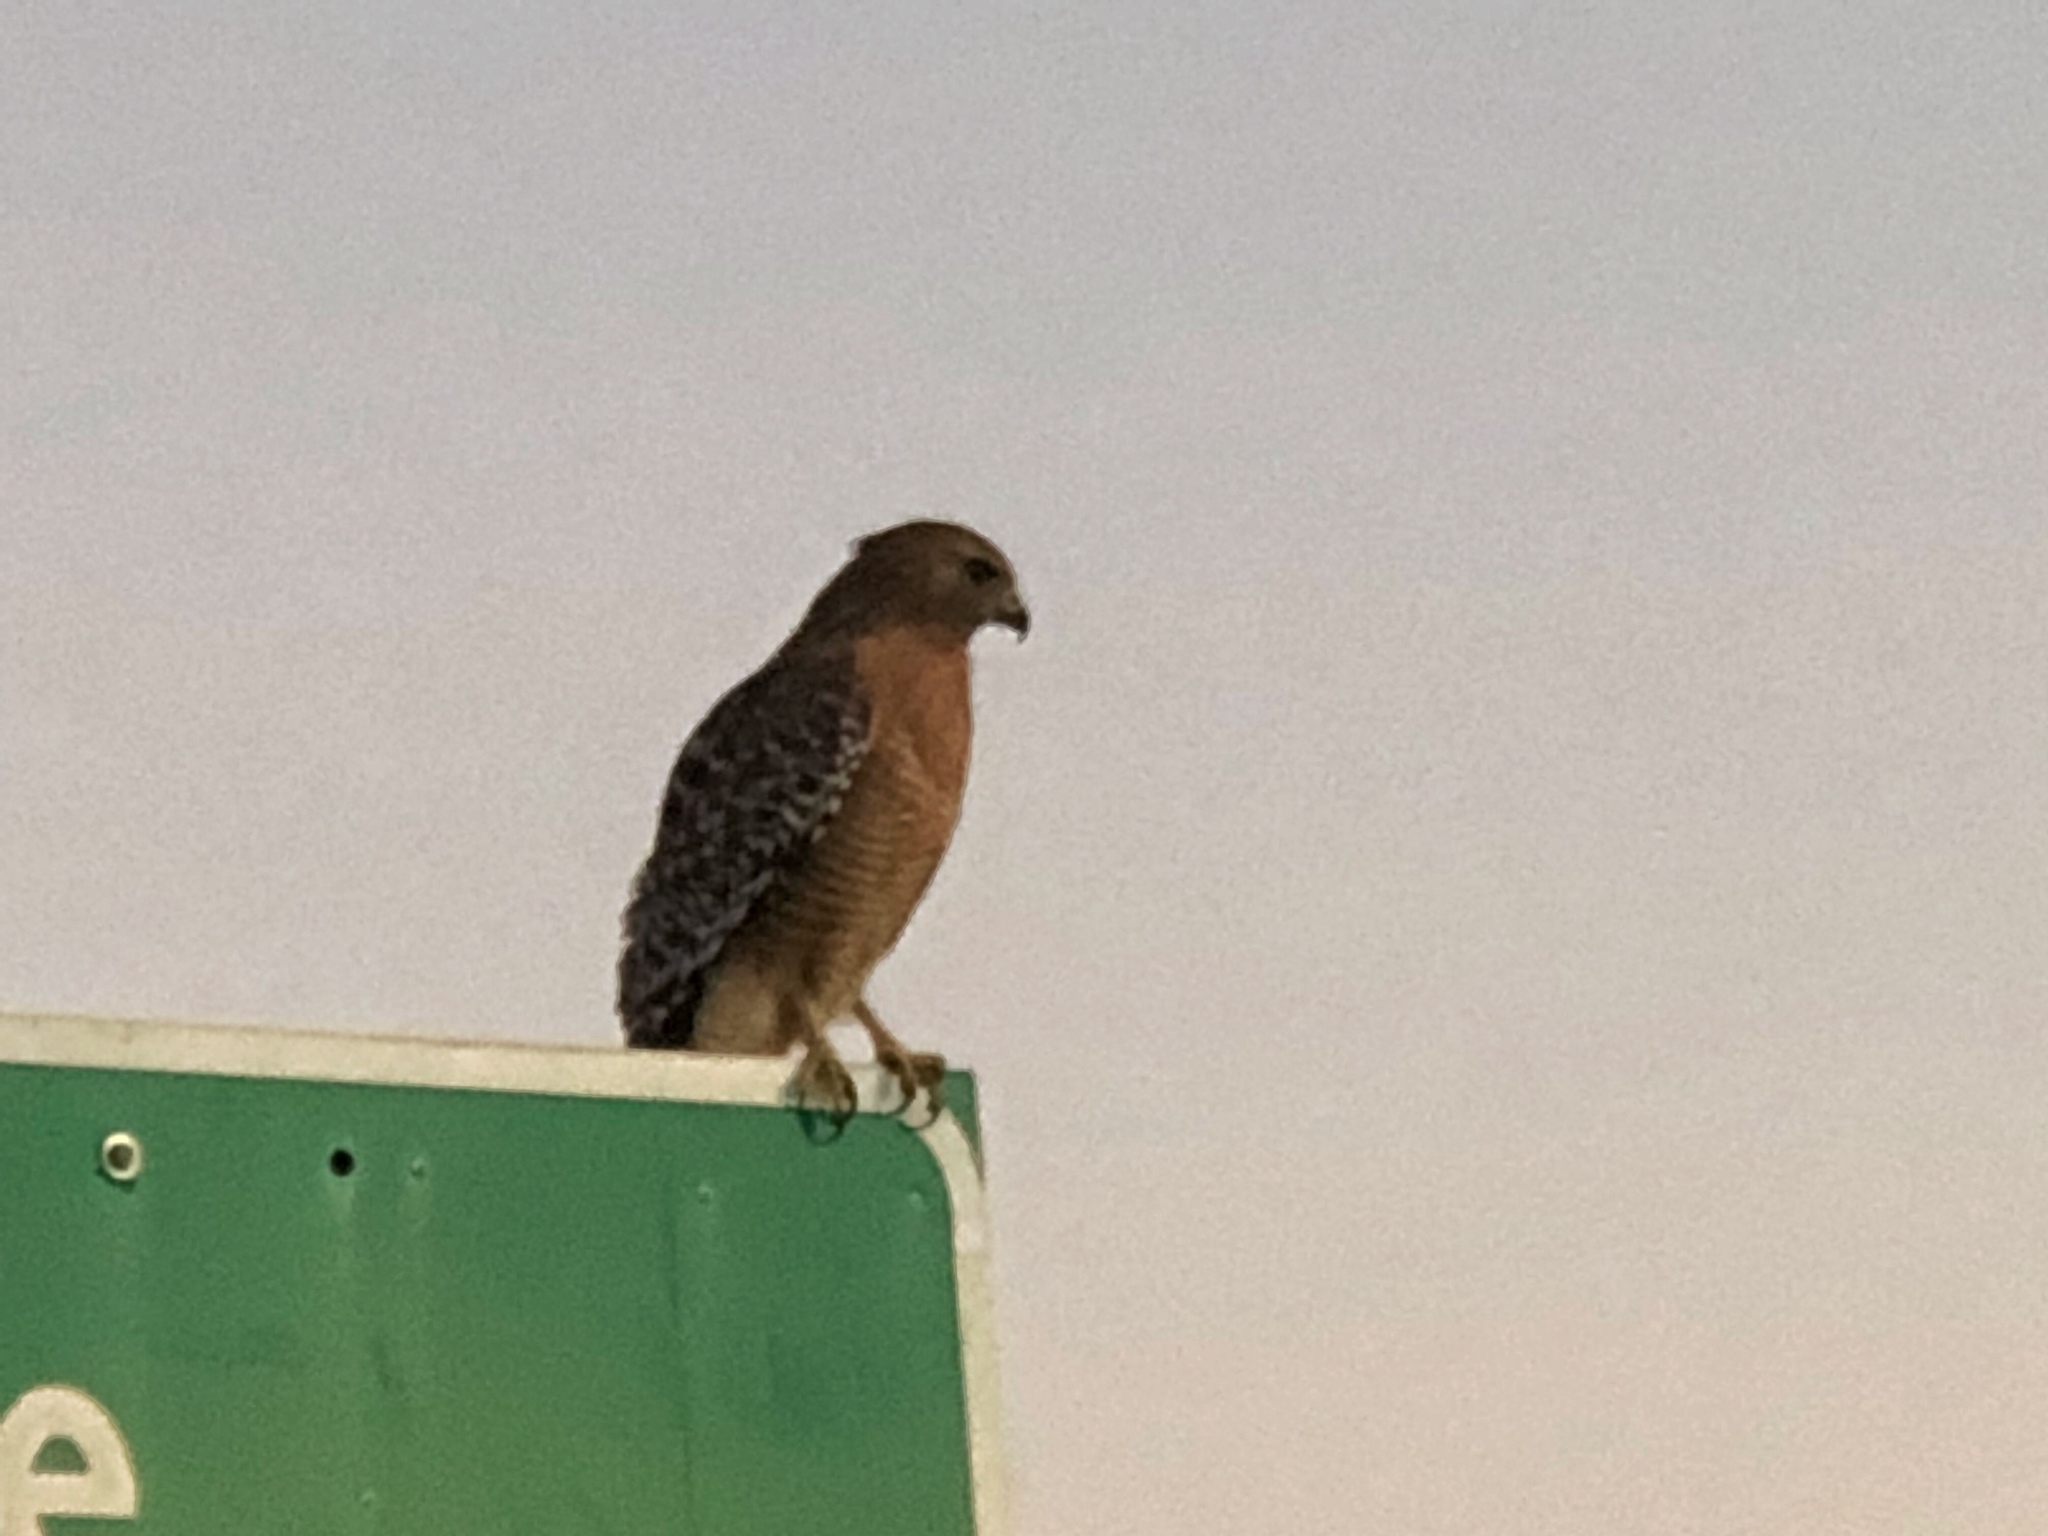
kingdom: Animalia
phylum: Chordata
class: Aves
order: Accipitriformes
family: Accipitridae
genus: Buteo
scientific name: Buteo lineatus
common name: Red-shouldered hawk
